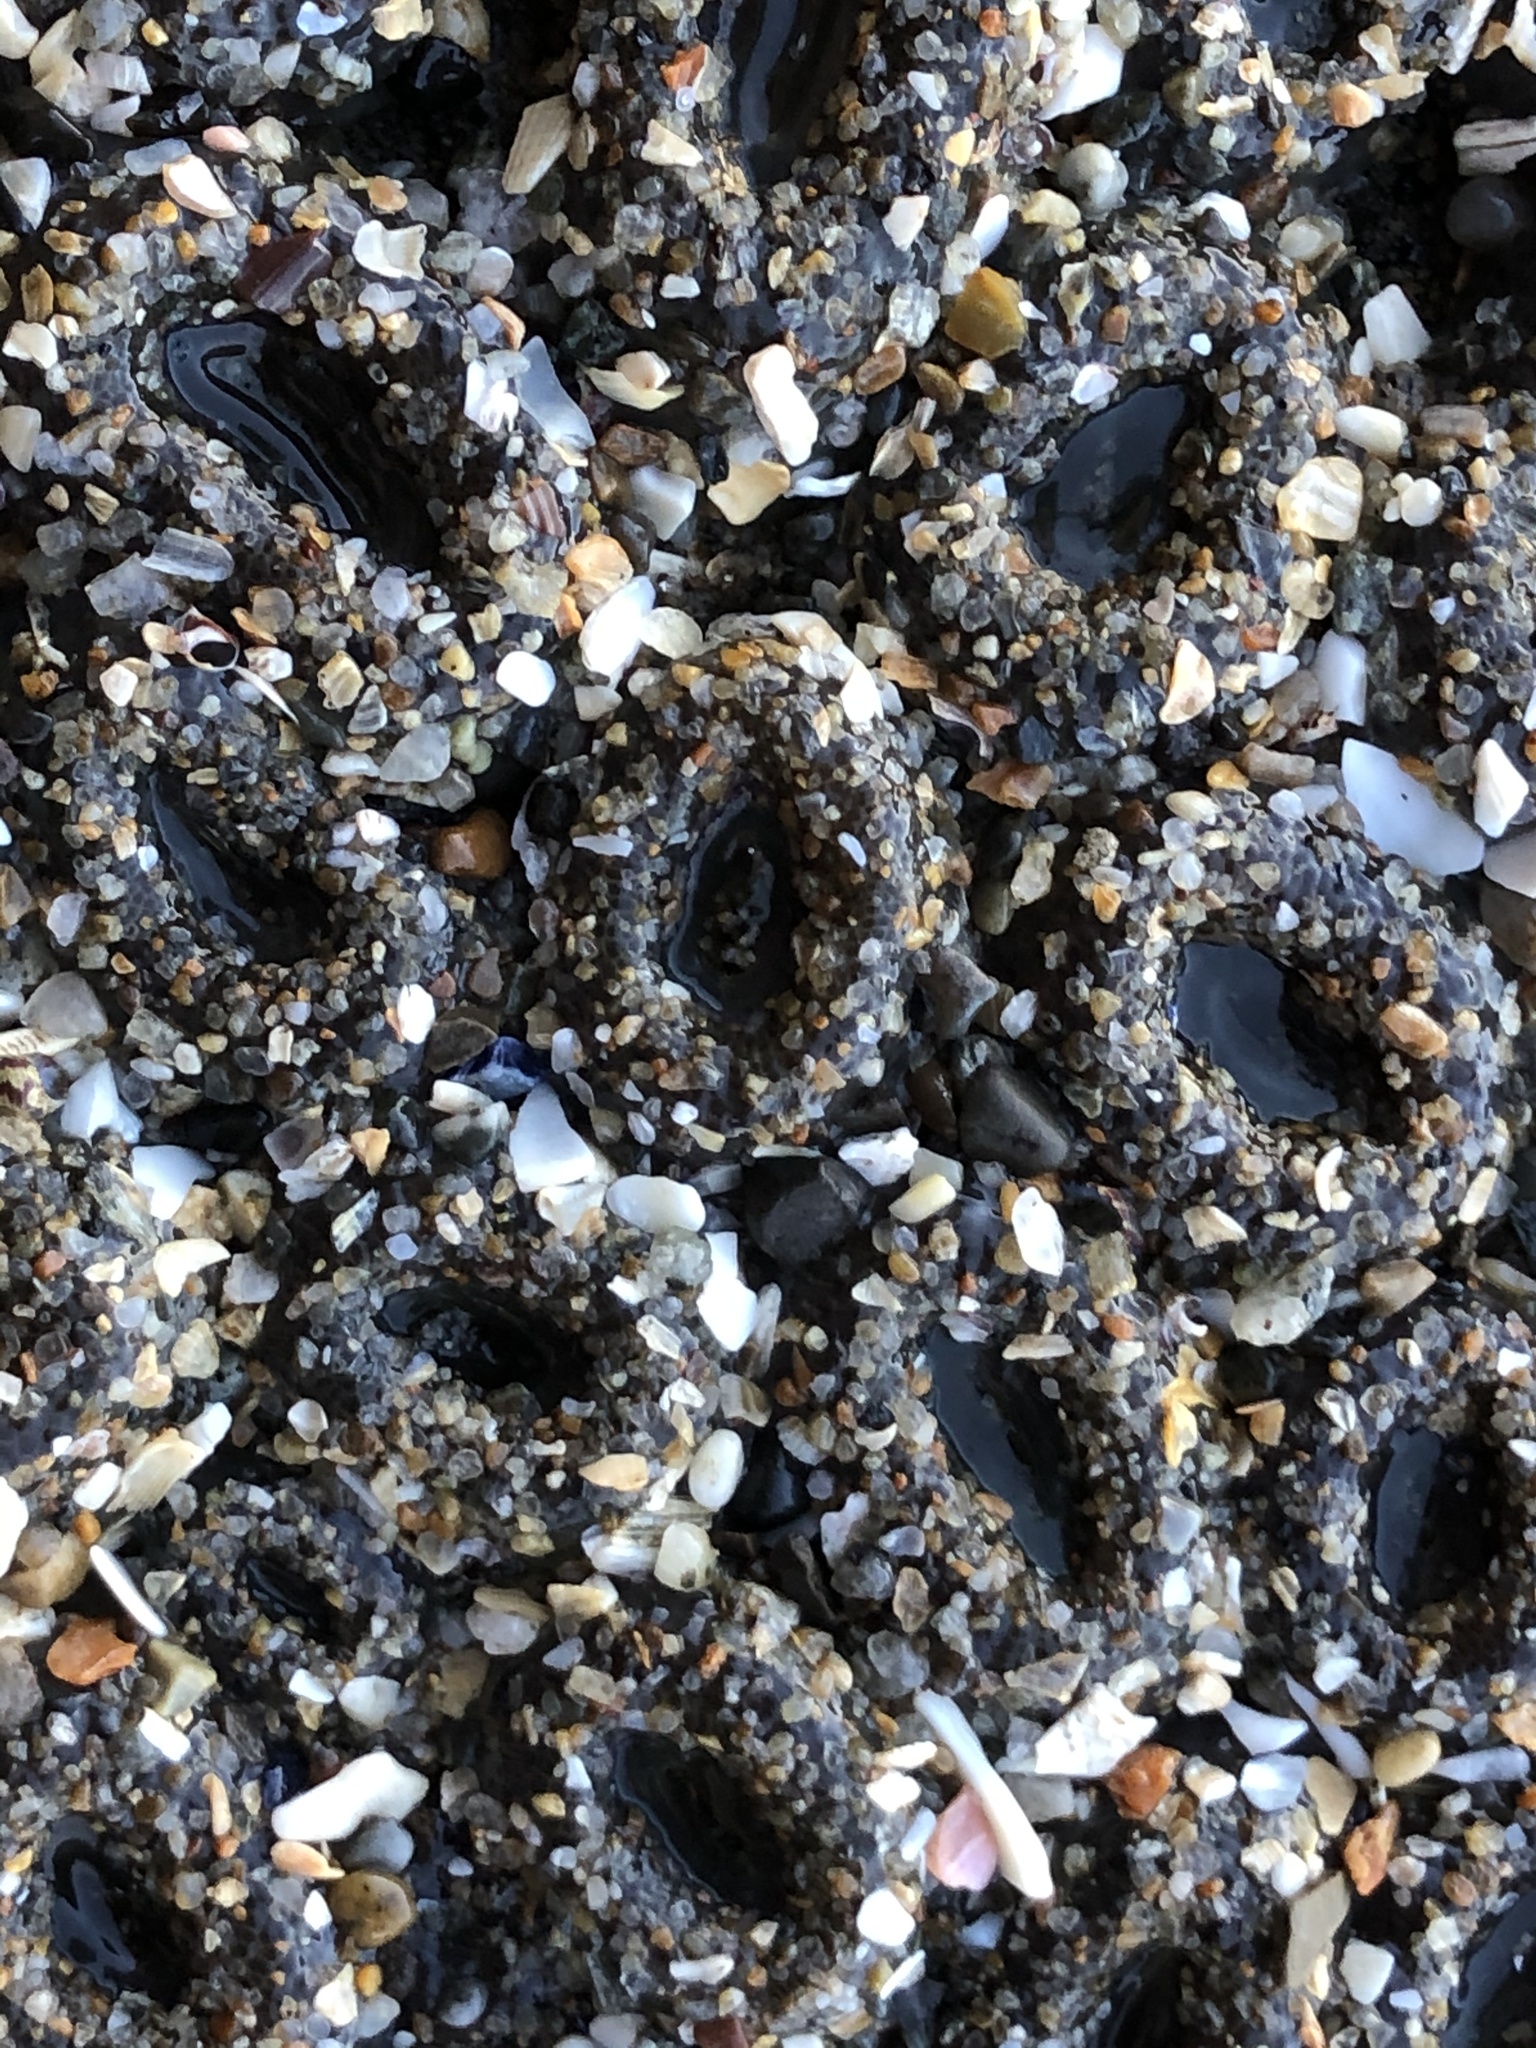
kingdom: Animalia
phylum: Cnidaria
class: Anthozoa
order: Actiniaria
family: Actiniidae
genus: Anthopleura
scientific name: Anthopleura elegantissima
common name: Clonal anemone
